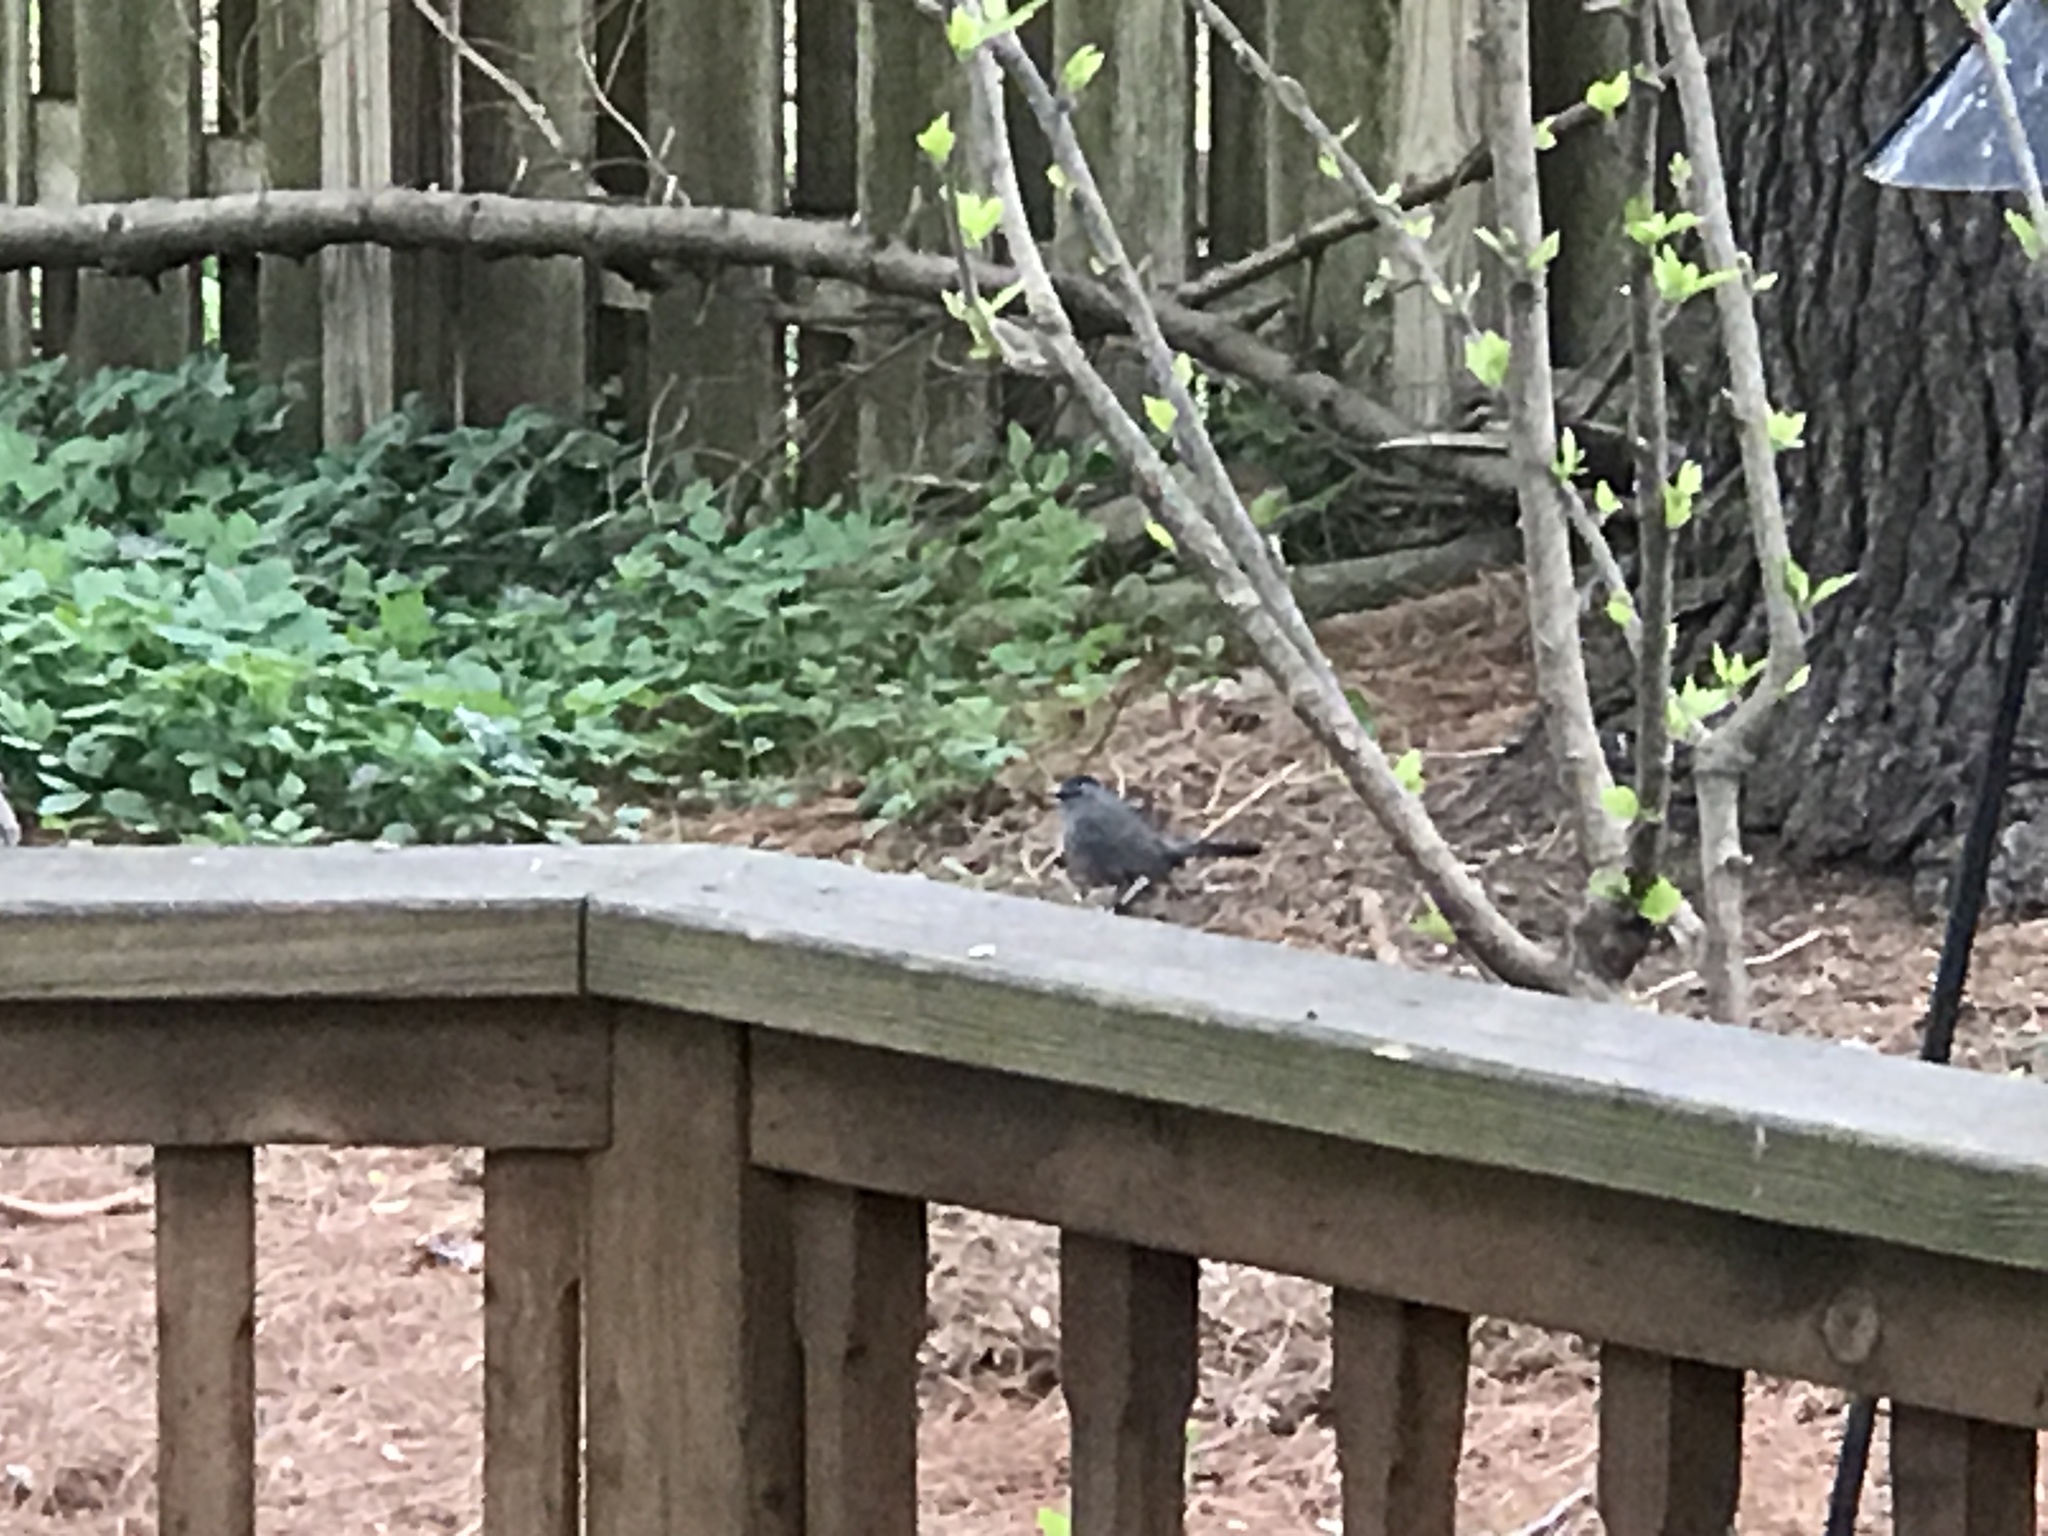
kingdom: Animalia
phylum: Chordata
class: Aves
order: Passeriformes
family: Mimidae
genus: Dumetella
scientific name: Dumetella carolinensis
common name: Gray catbird
